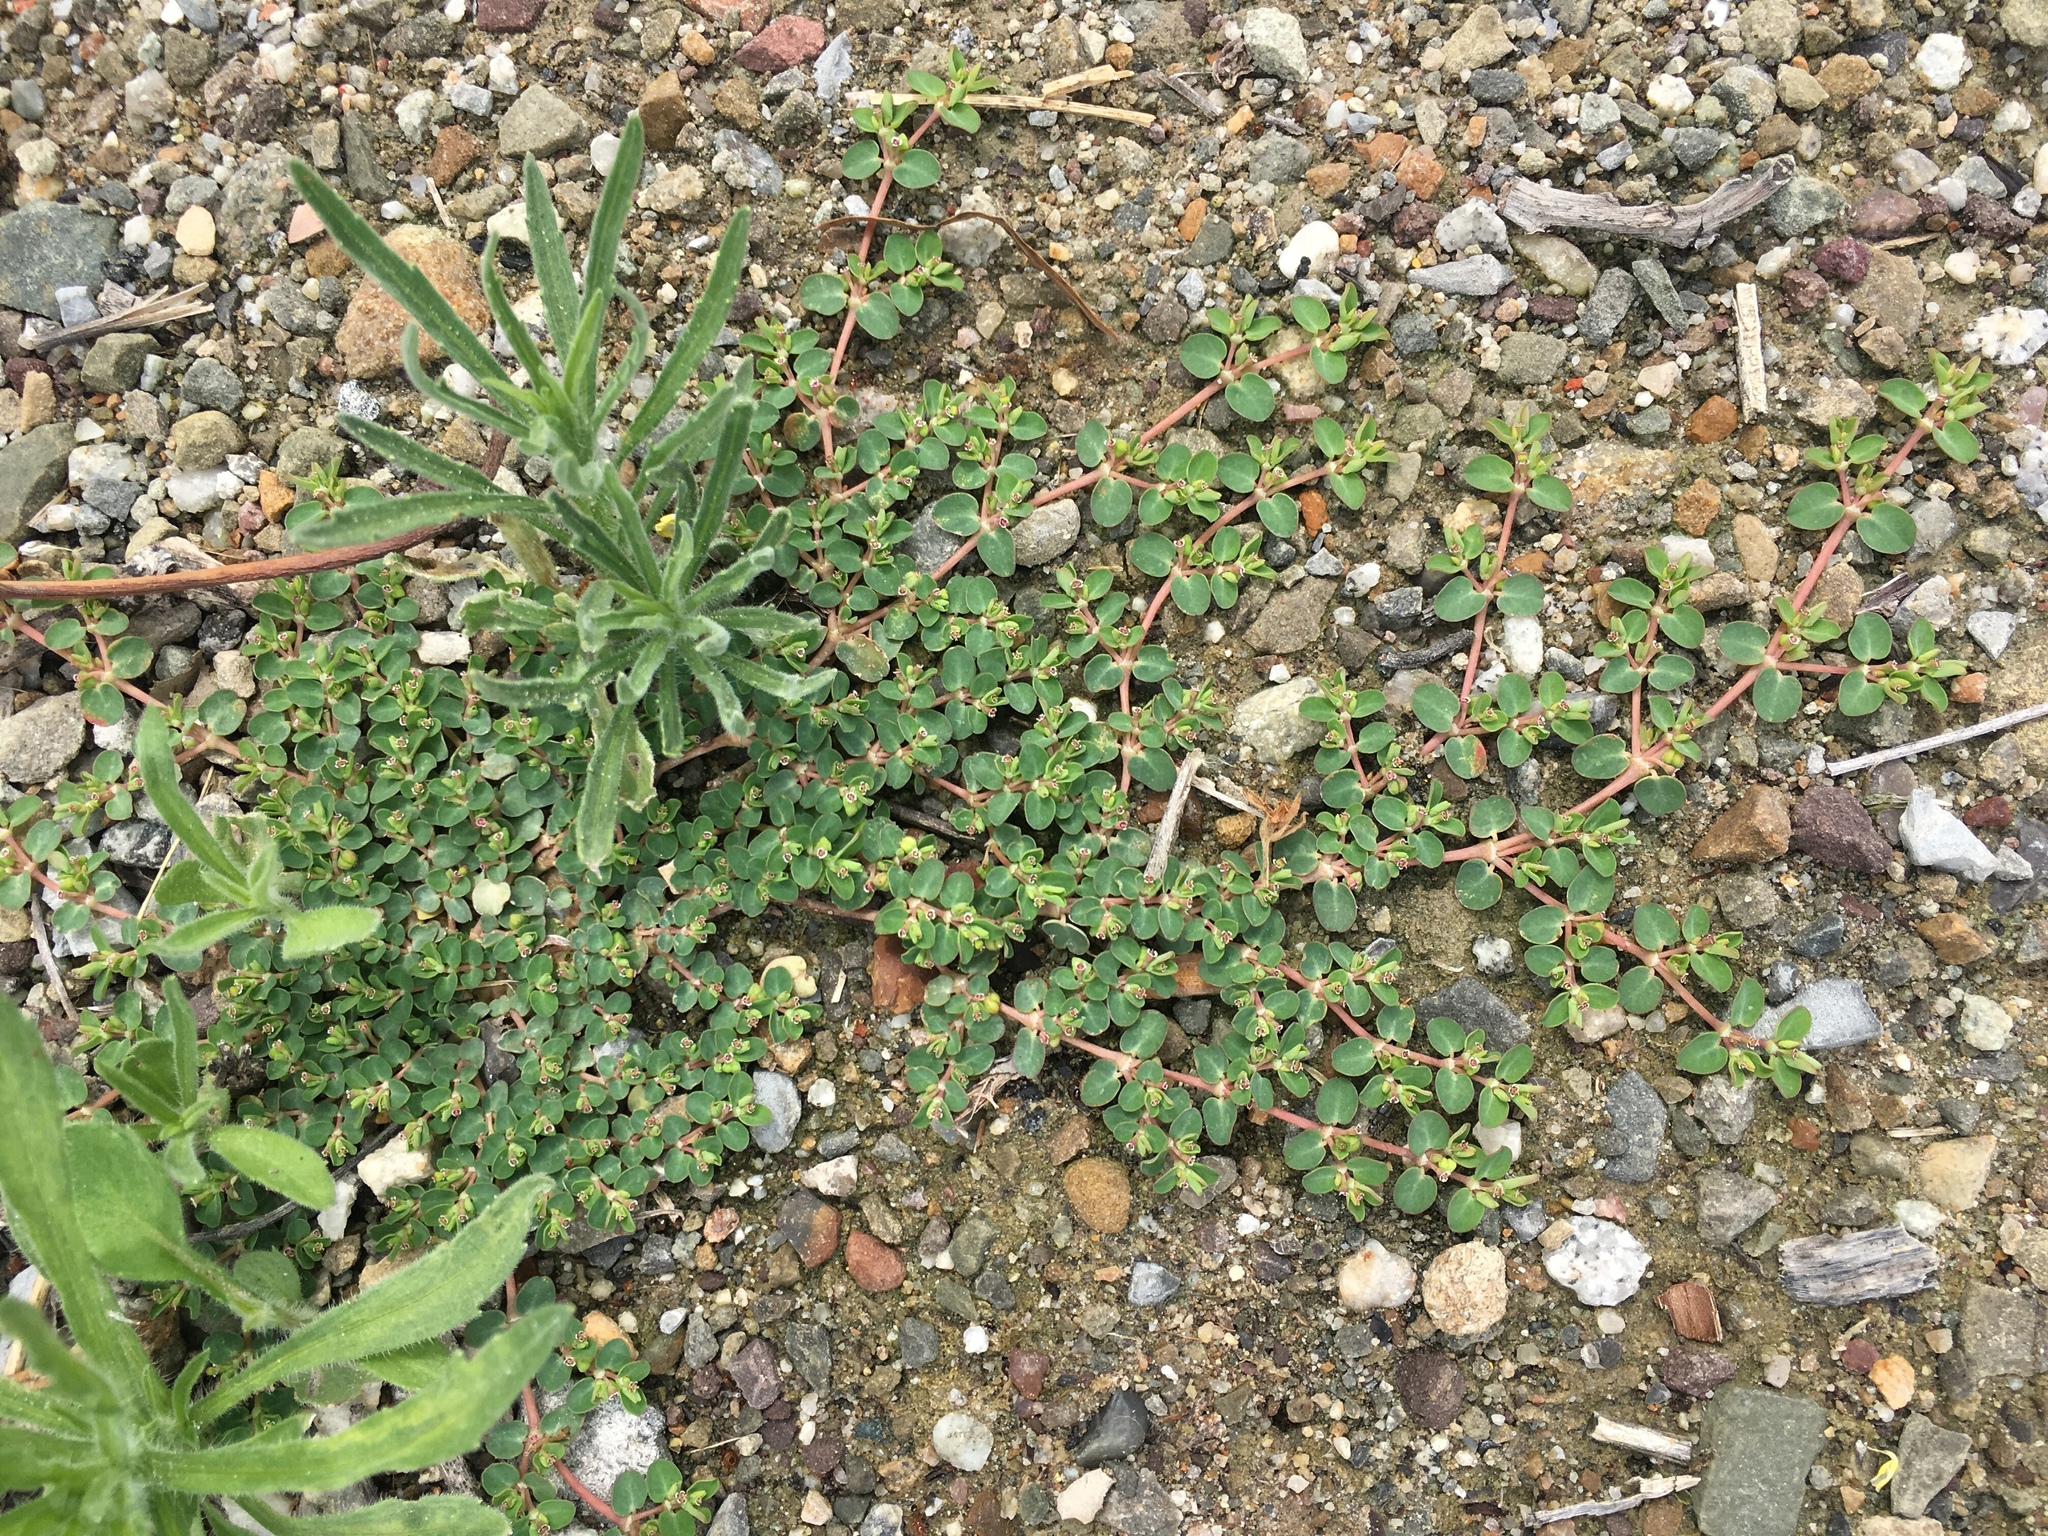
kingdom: Plantae
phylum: Tracheophyta
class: Magnoliopsida
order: Malpighiales
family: Euphorbiaceae
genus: Euphorbia
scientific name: Euphorbia serpens
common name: Matted sandmat
